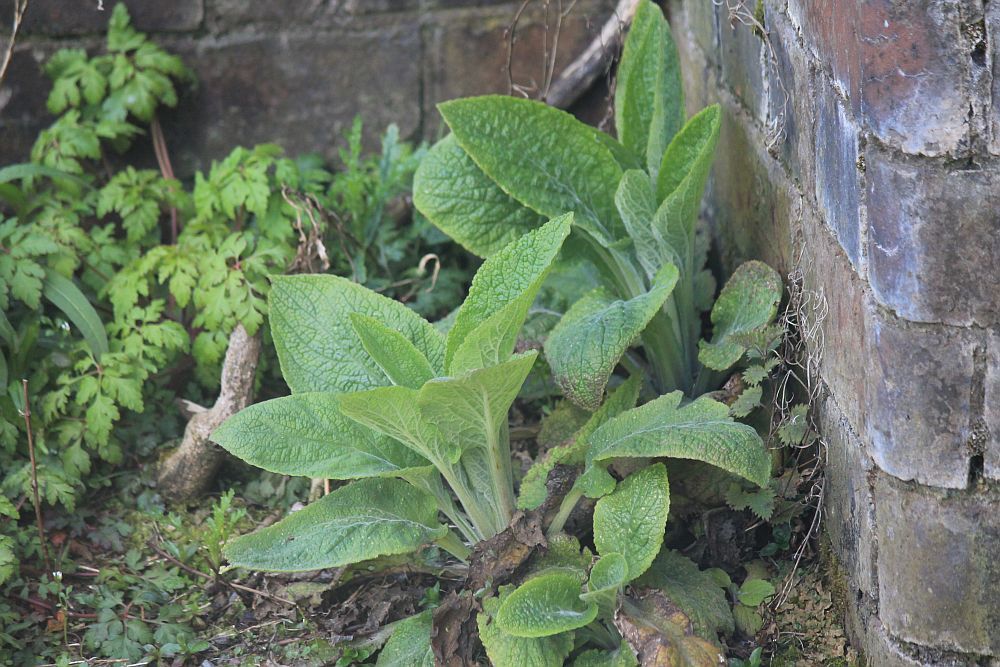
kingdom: Plantae
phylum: Tracheophyta
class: Magnoliopsida
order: Lamiales
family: Plantaginaceae
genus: Digitalis
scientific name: Digitalis purpurea
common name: Foxglove
